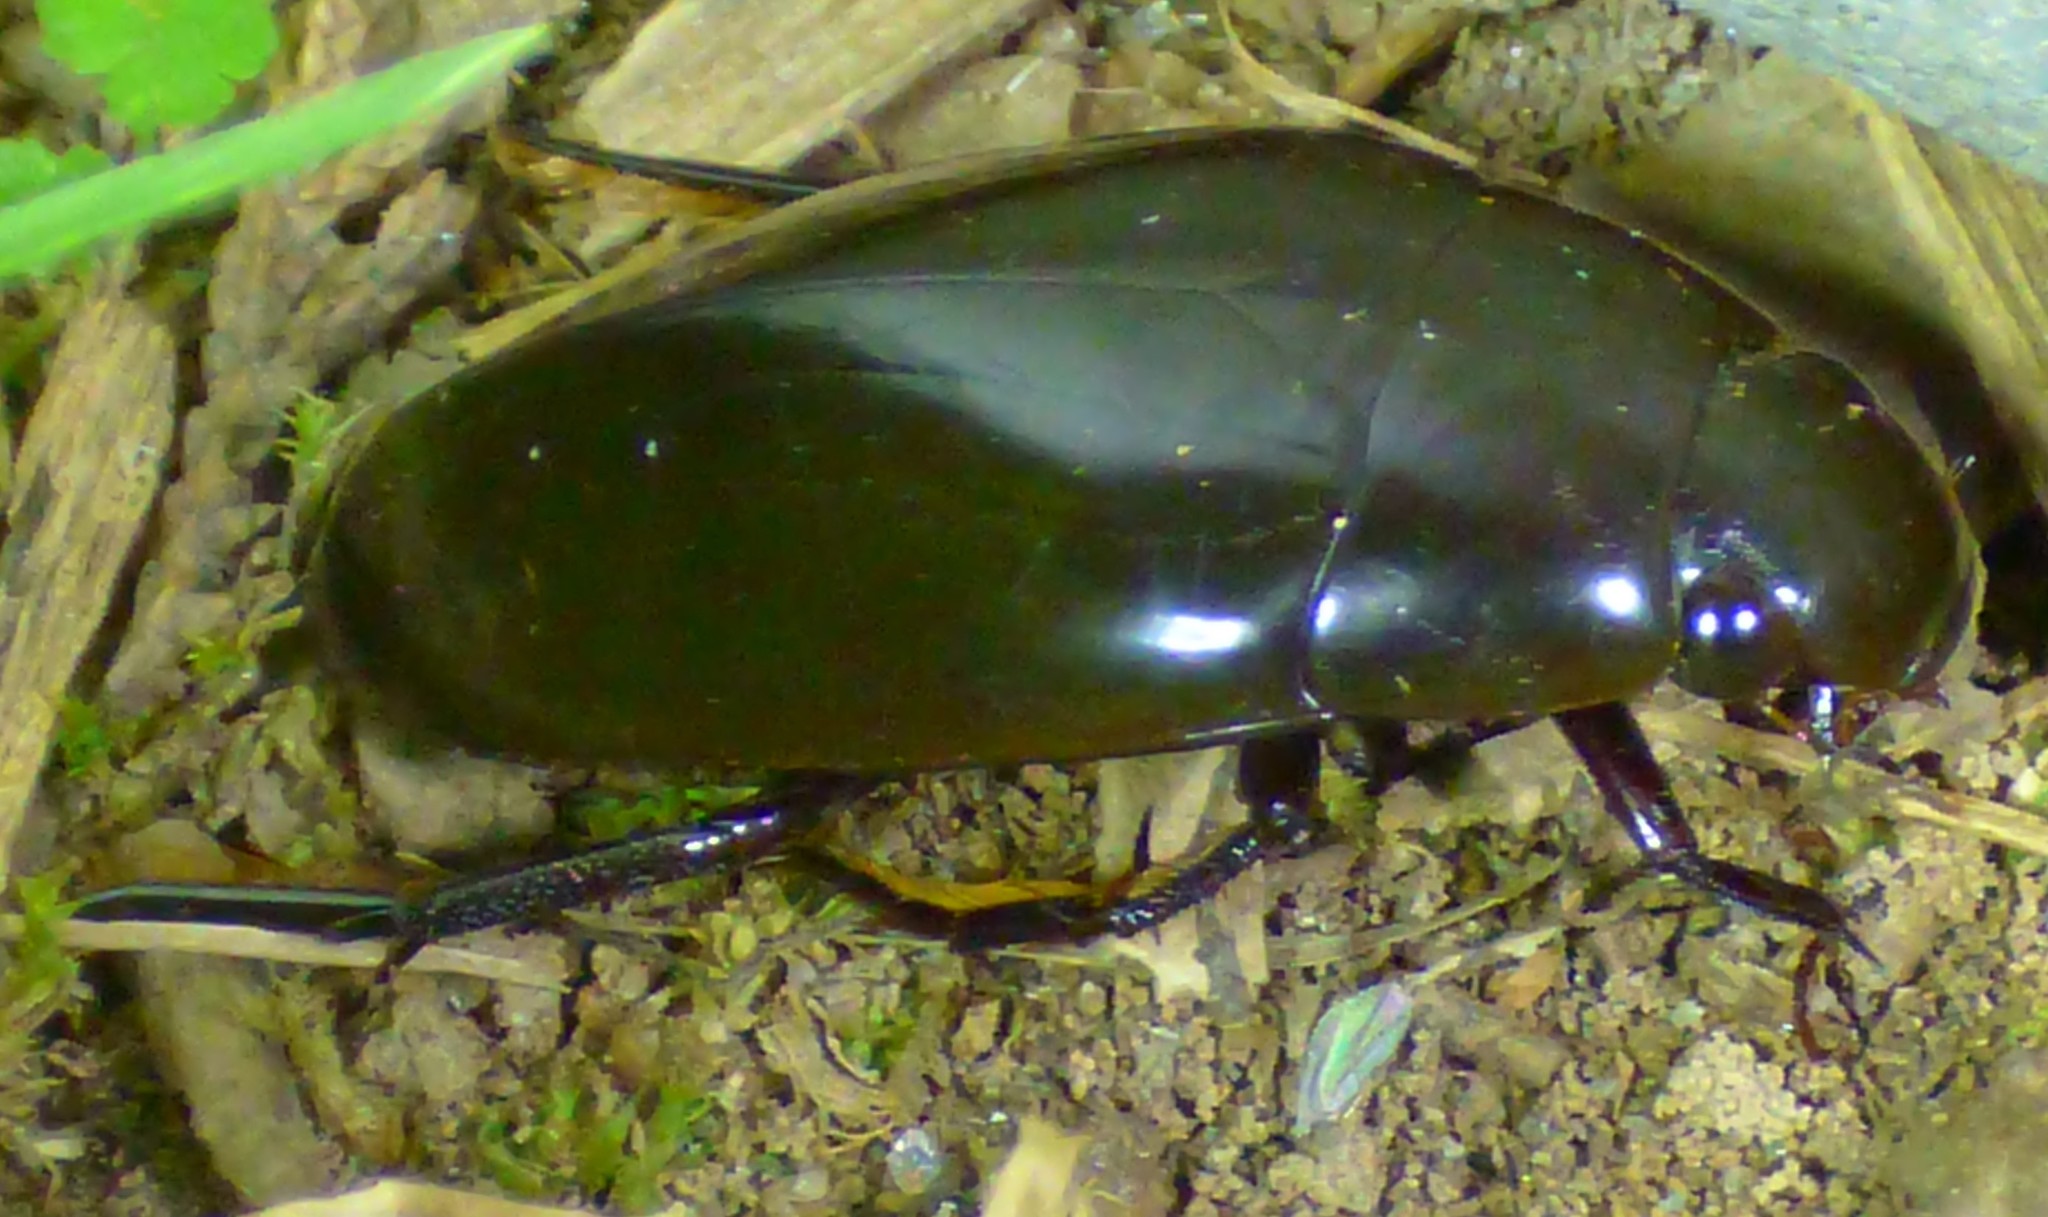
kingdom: Animalia
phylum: Arthropoda
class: Insecta
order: Coleoptera
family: Hydrophilidae
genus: Hydrophilus
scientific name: Hydrophilus triangularis
